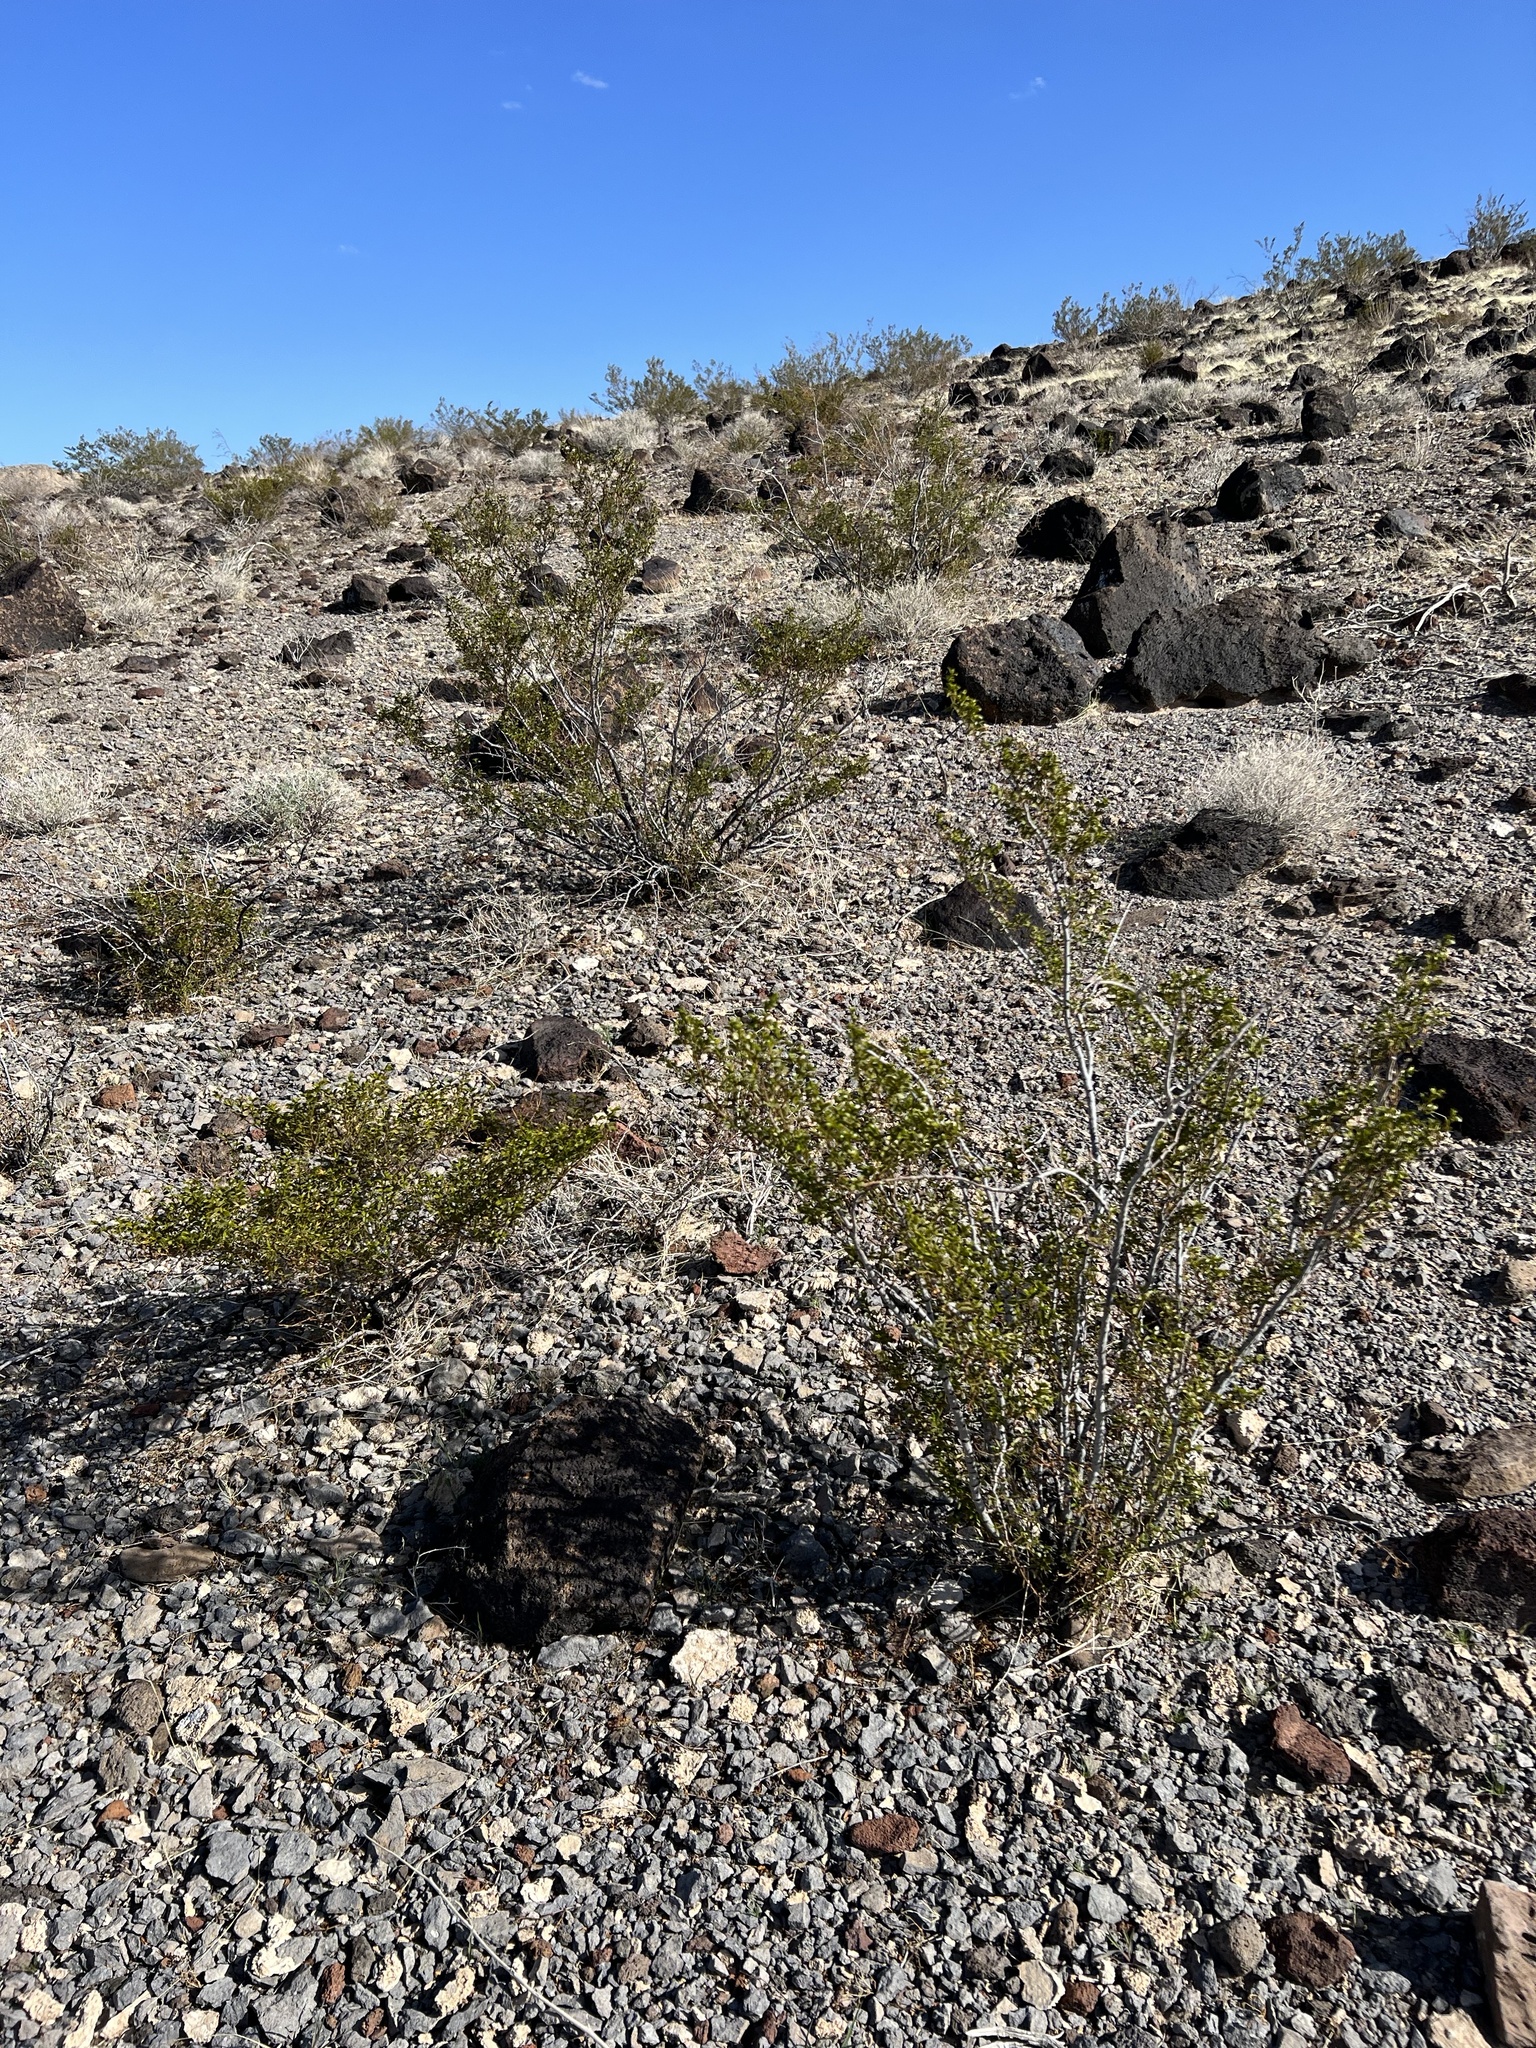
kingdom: Plantae
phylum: Tracheophyta
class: Magnoliopsida
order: Zygophyllales
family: Zygophyllaceae
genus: Larrea
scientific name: Larrea tridentata
